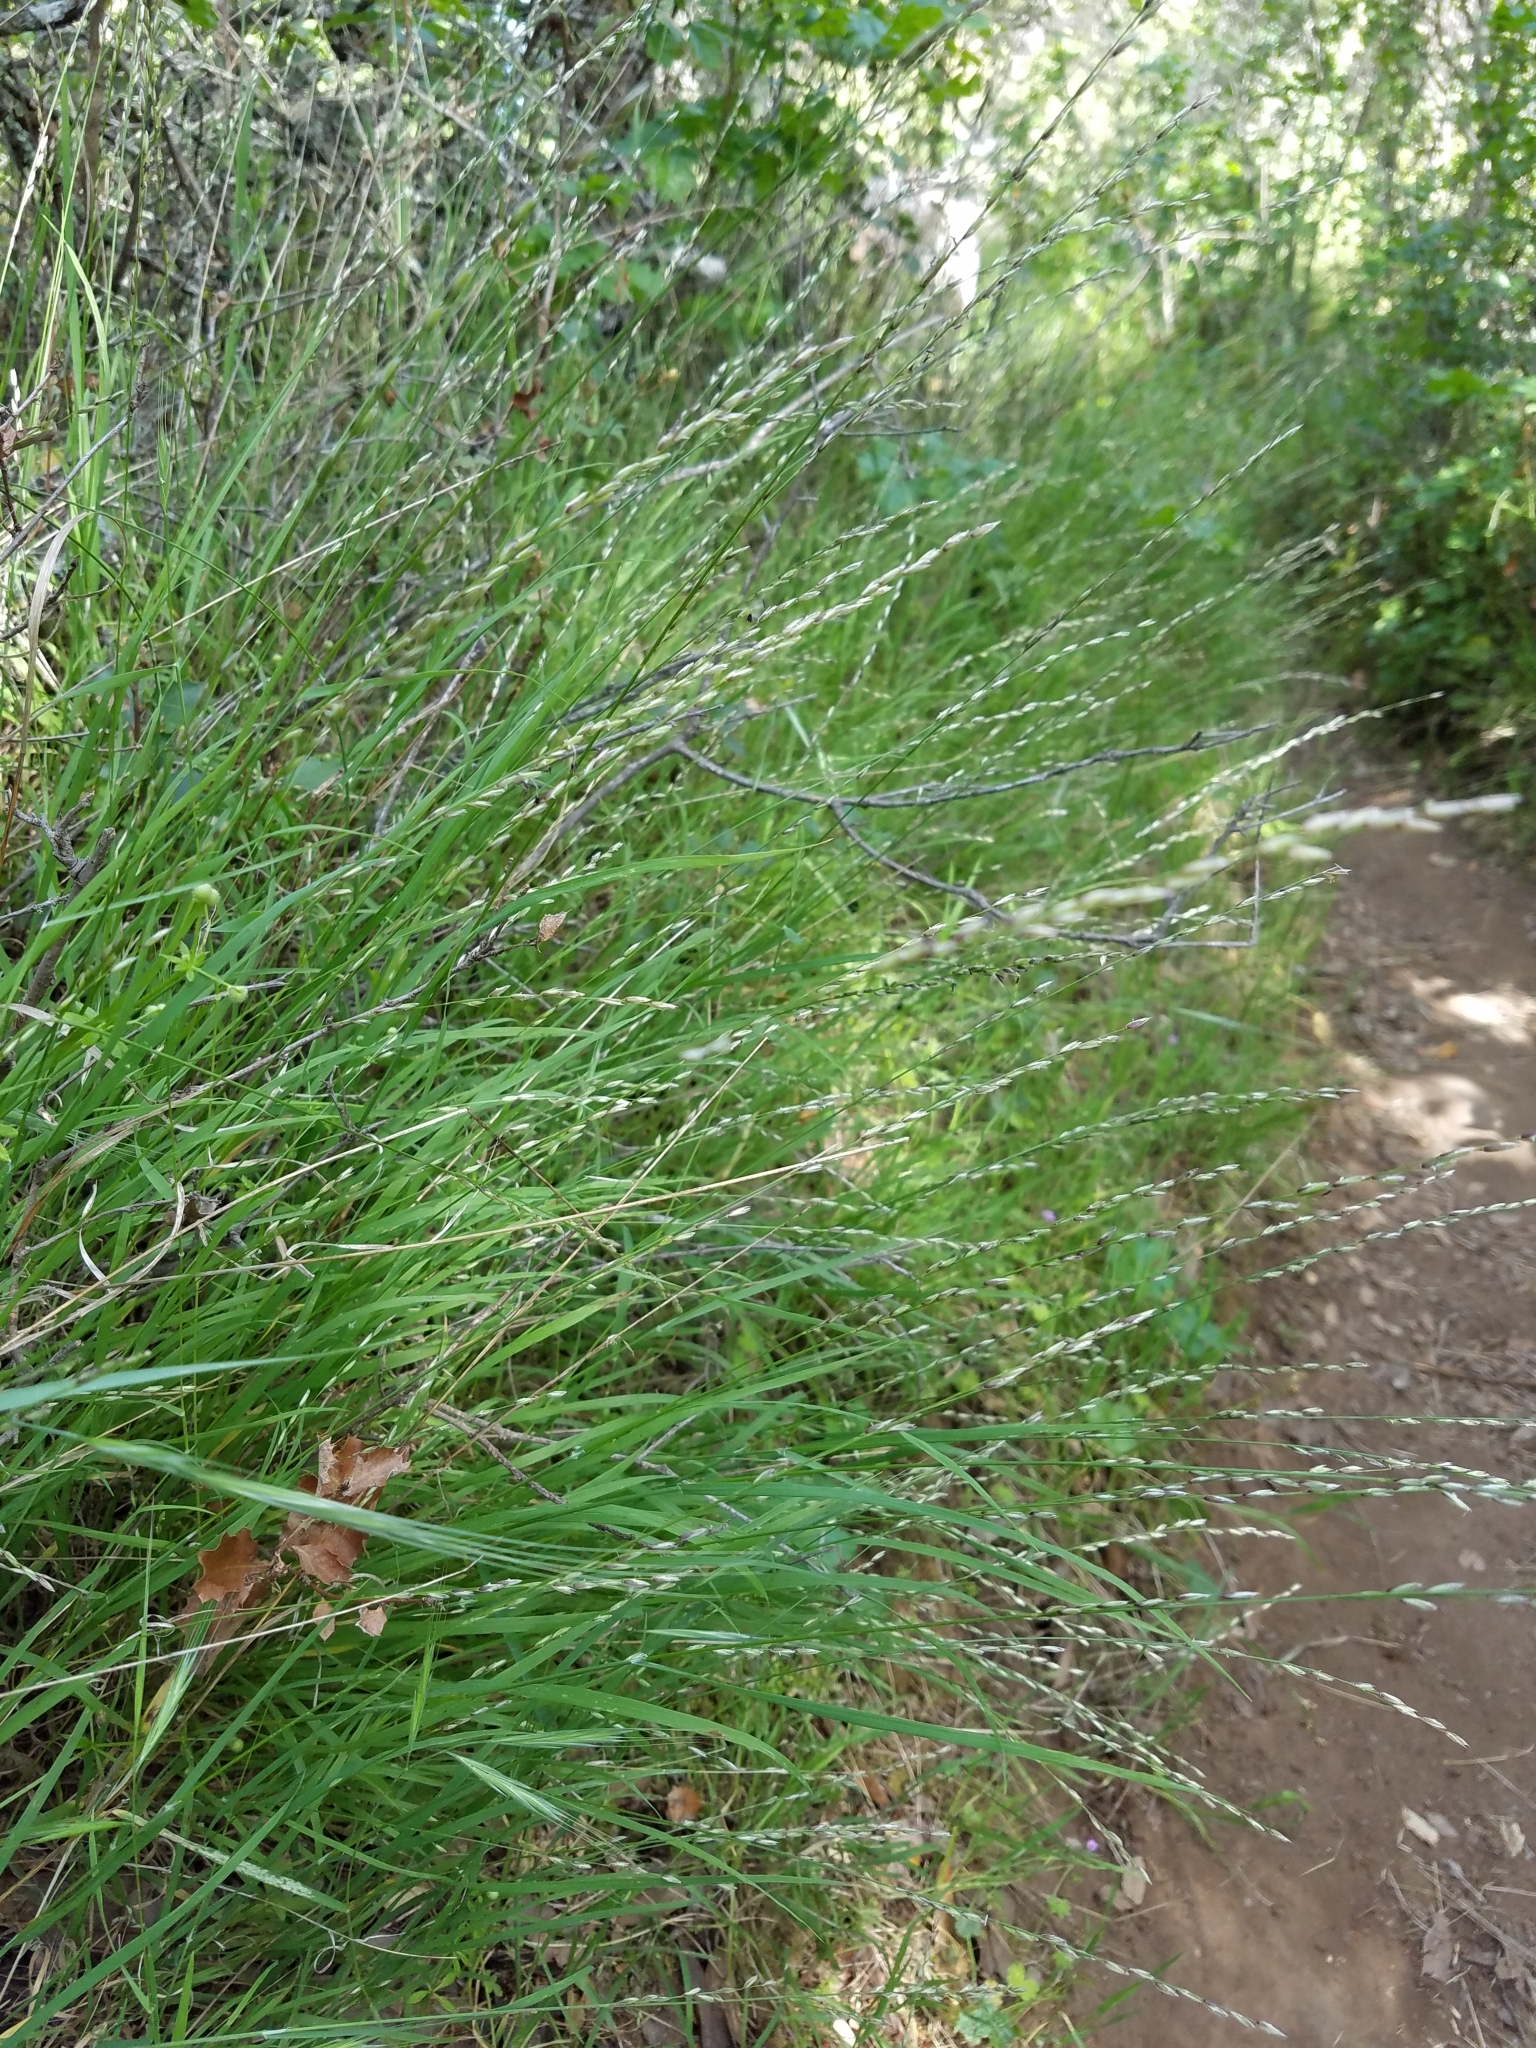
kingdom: Plantae
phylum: Tracheophyta
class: Liliopsida
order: Poales
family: Poaceae
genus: Melica
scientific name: Melica imperfecta
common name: California melic
